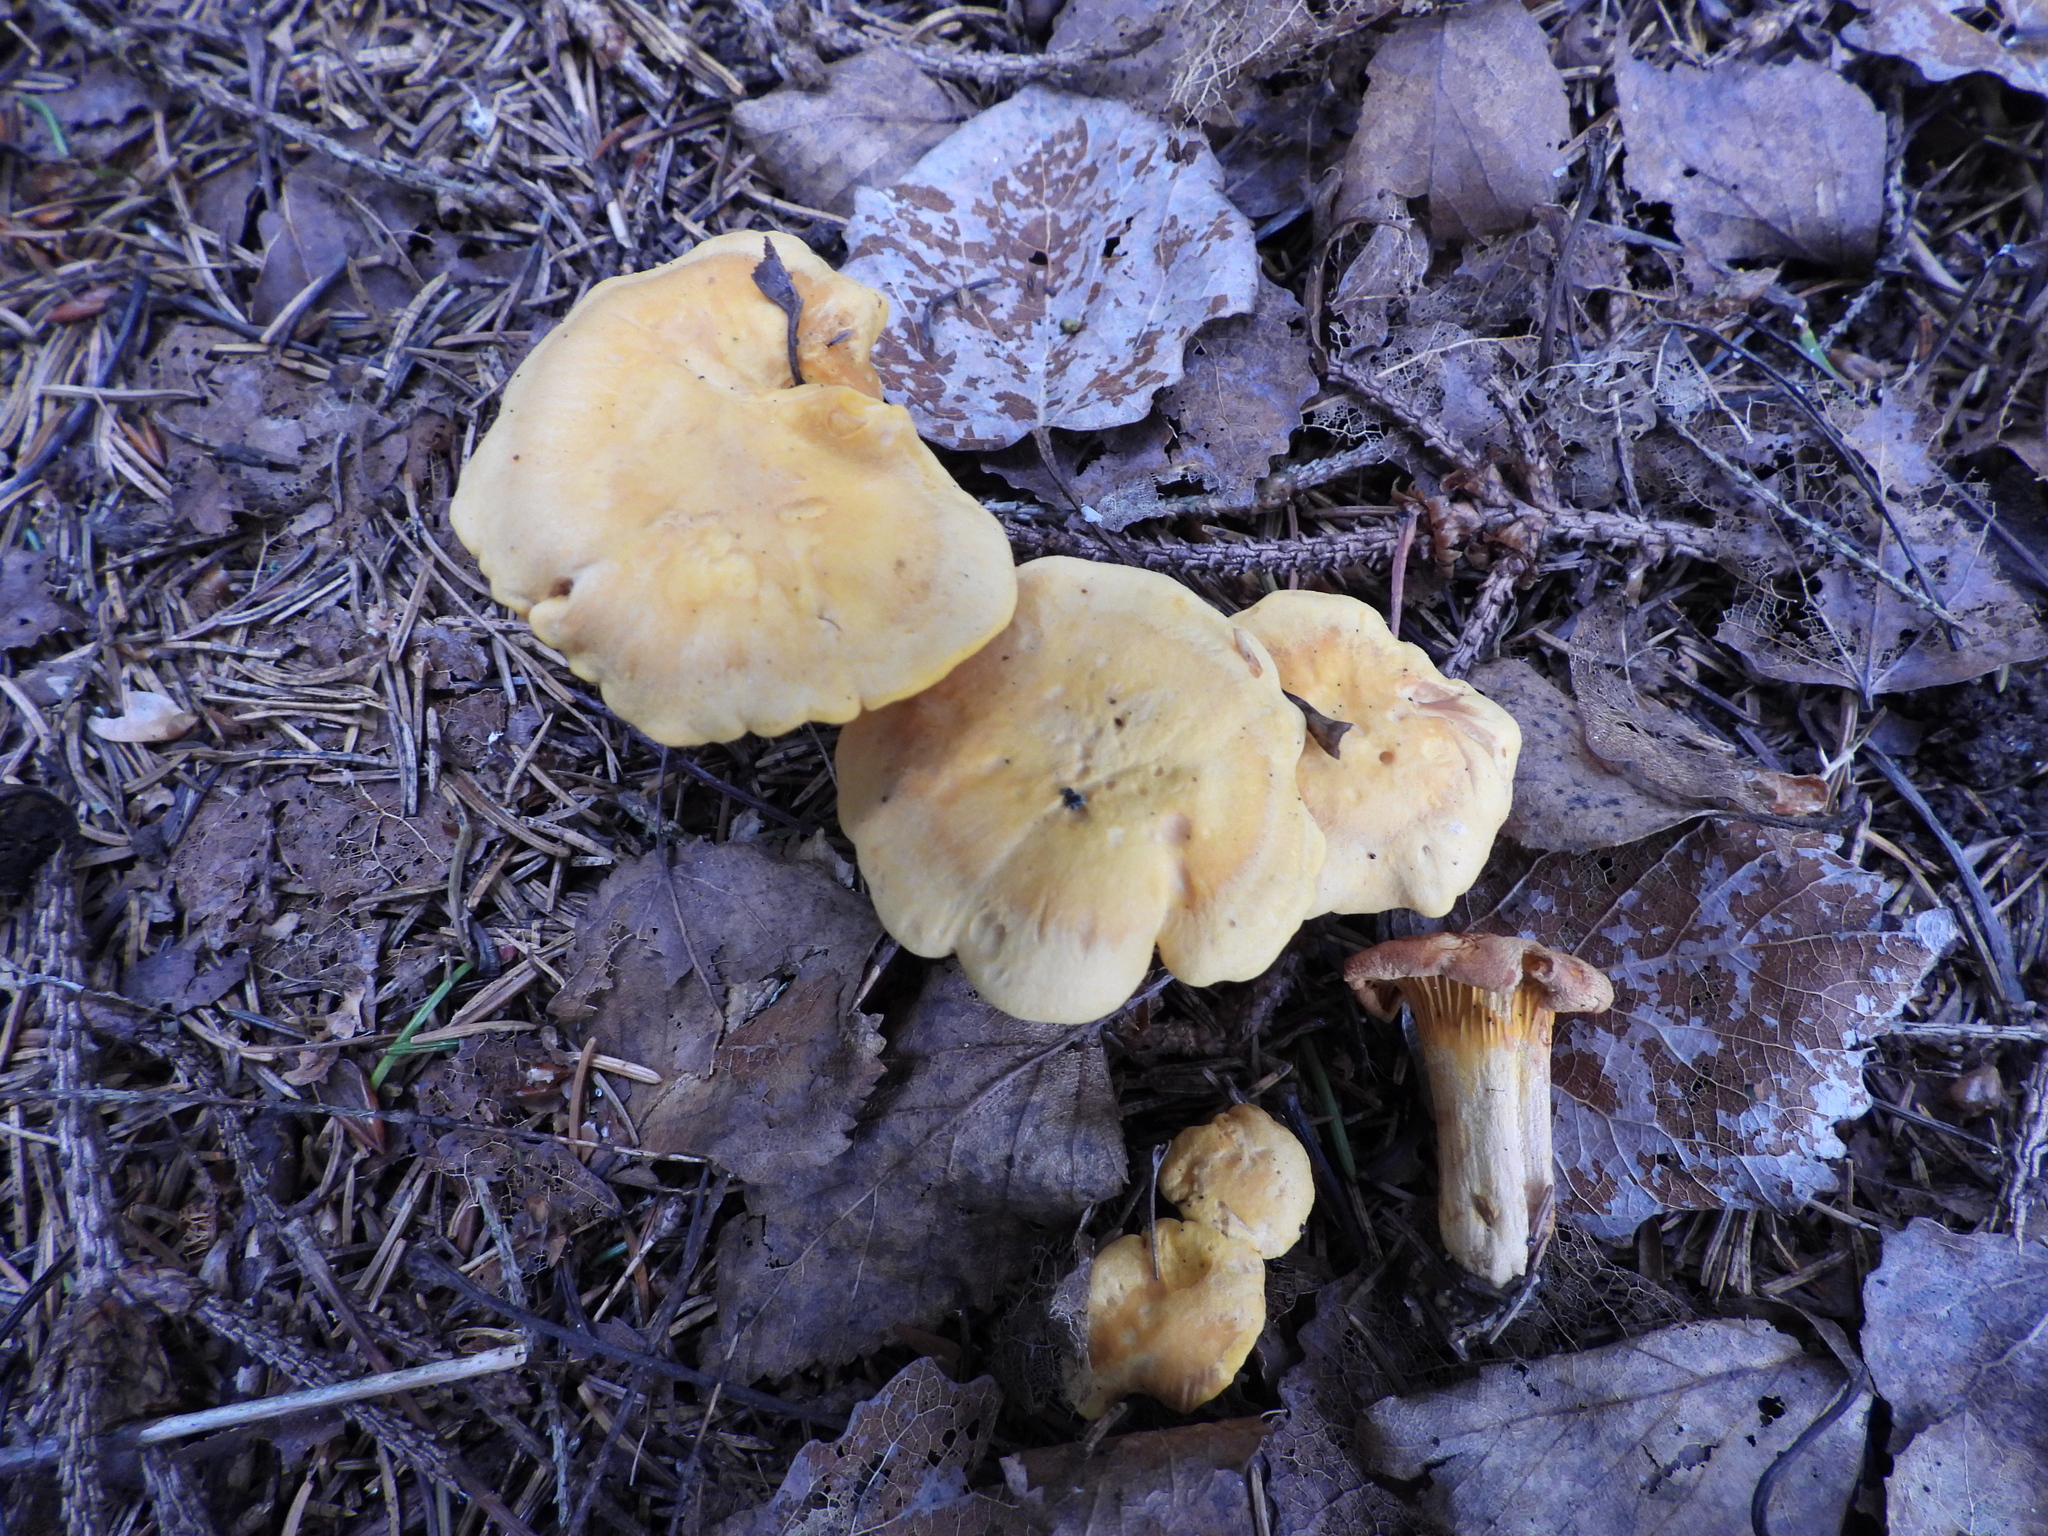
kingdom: Fungi
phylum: Basidiomycota
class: Agaricomycetes
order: Cantharellales
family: Hydnaceae
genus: Cantharellus
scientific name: Cantharellus cibarius
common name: Chanterelle
